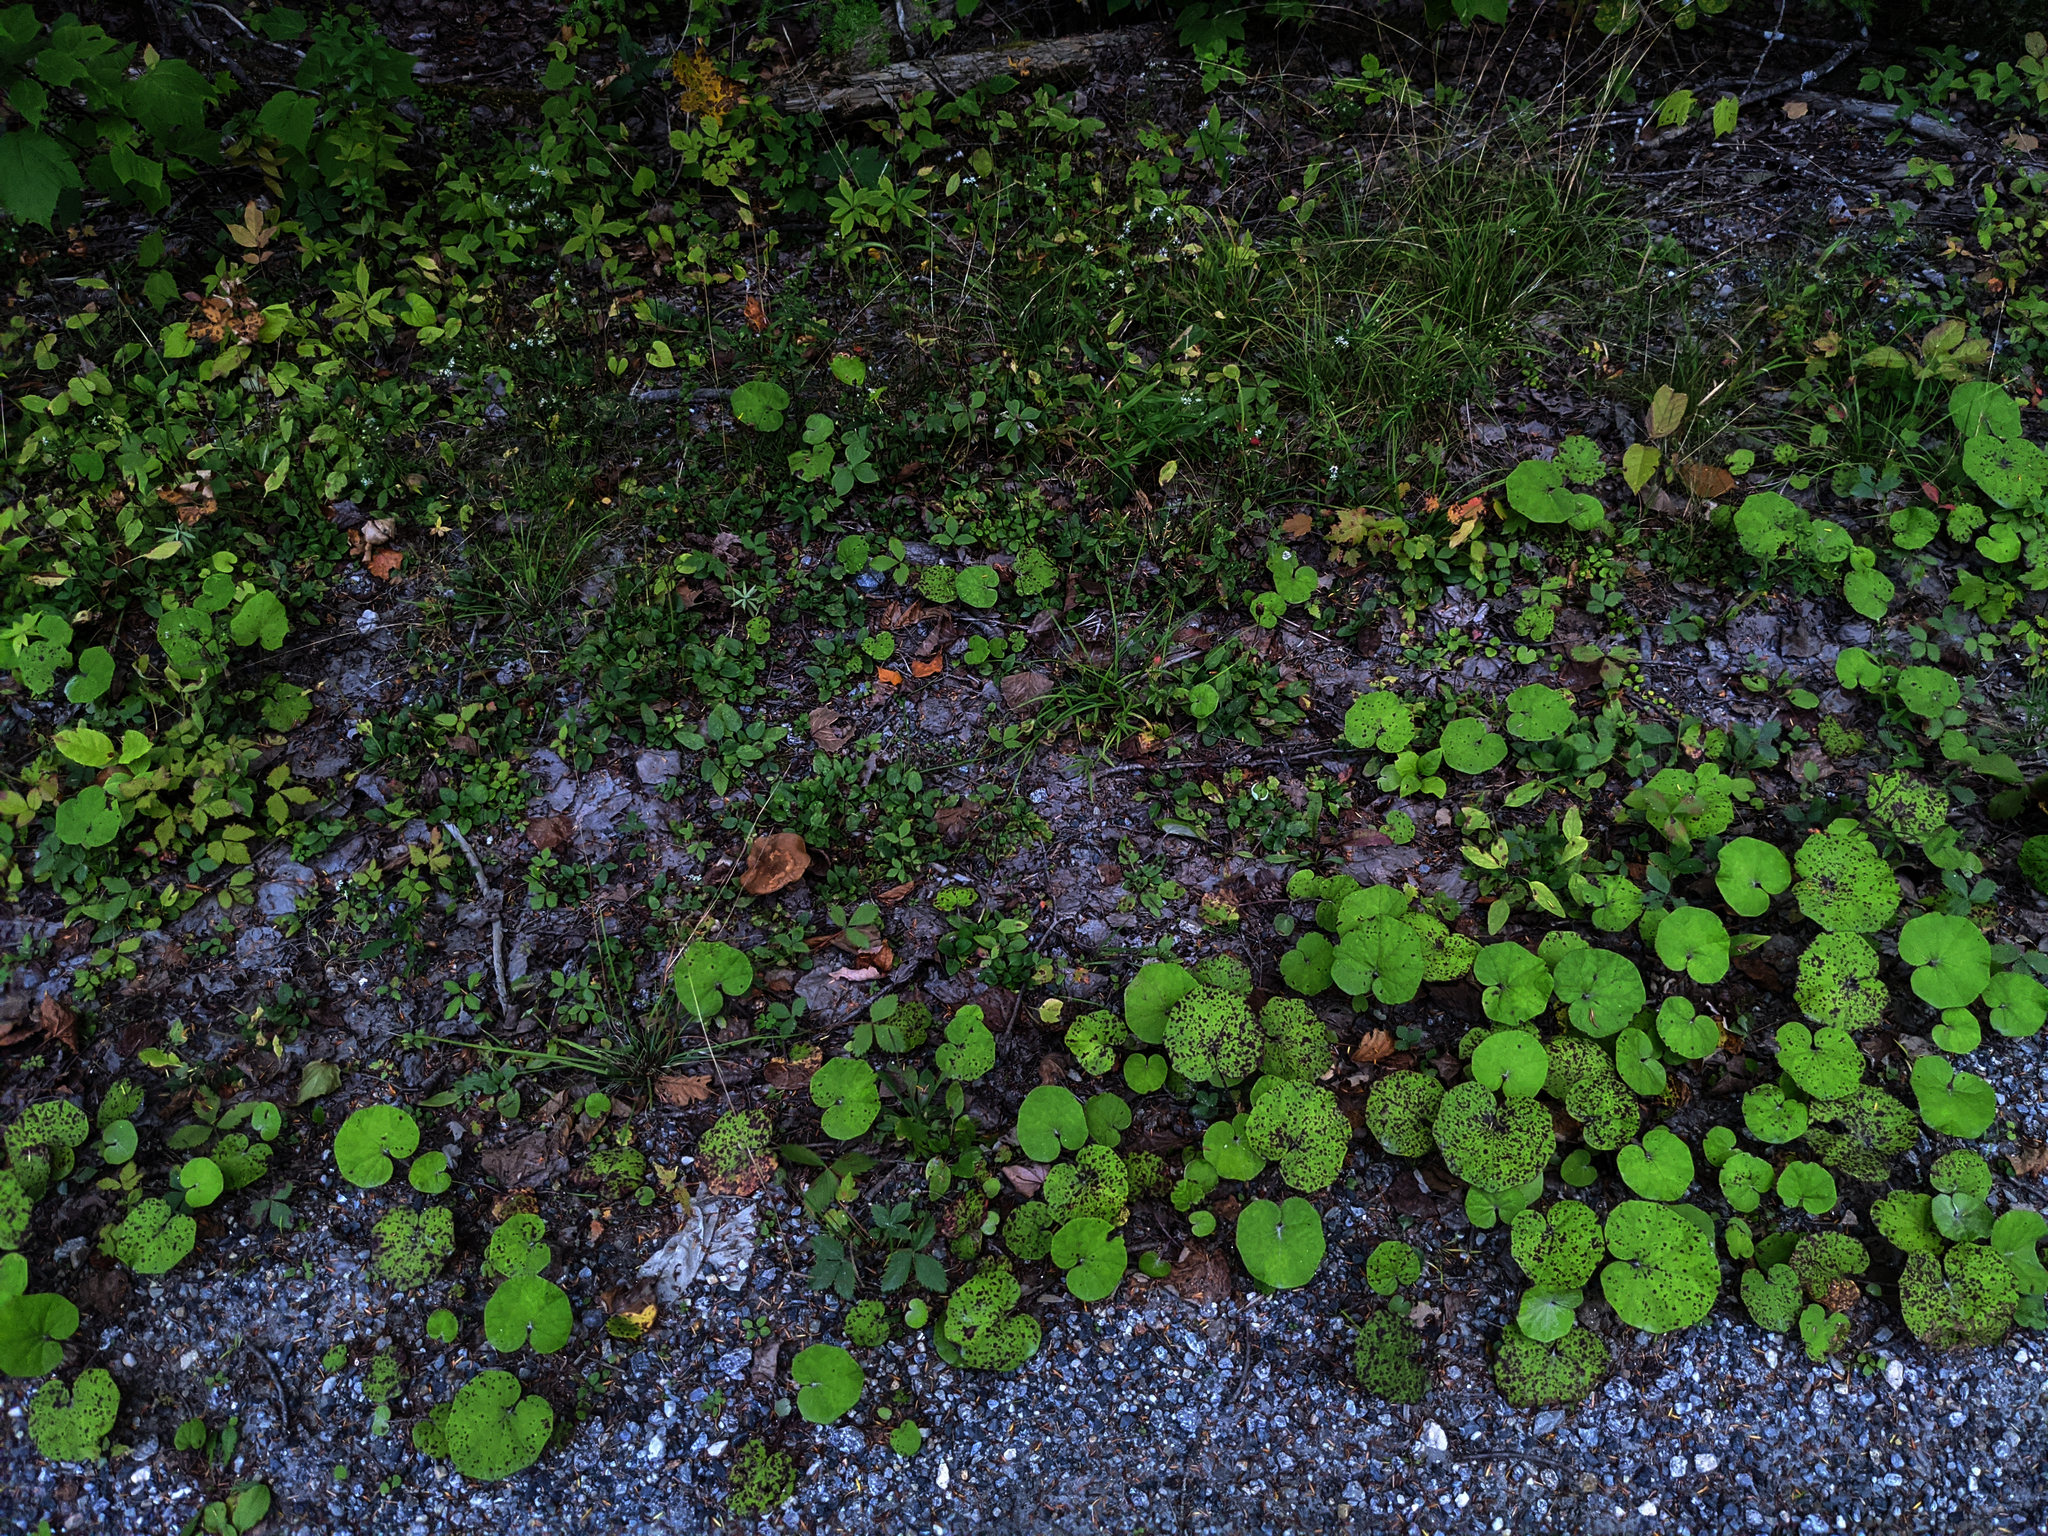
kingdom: Plantae
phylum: Tracheophyta
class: Magnoliopsida
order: Asterales
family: Asteraceae
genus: Tussilago
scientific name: Tussilago farfara
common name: Coltsfoot
